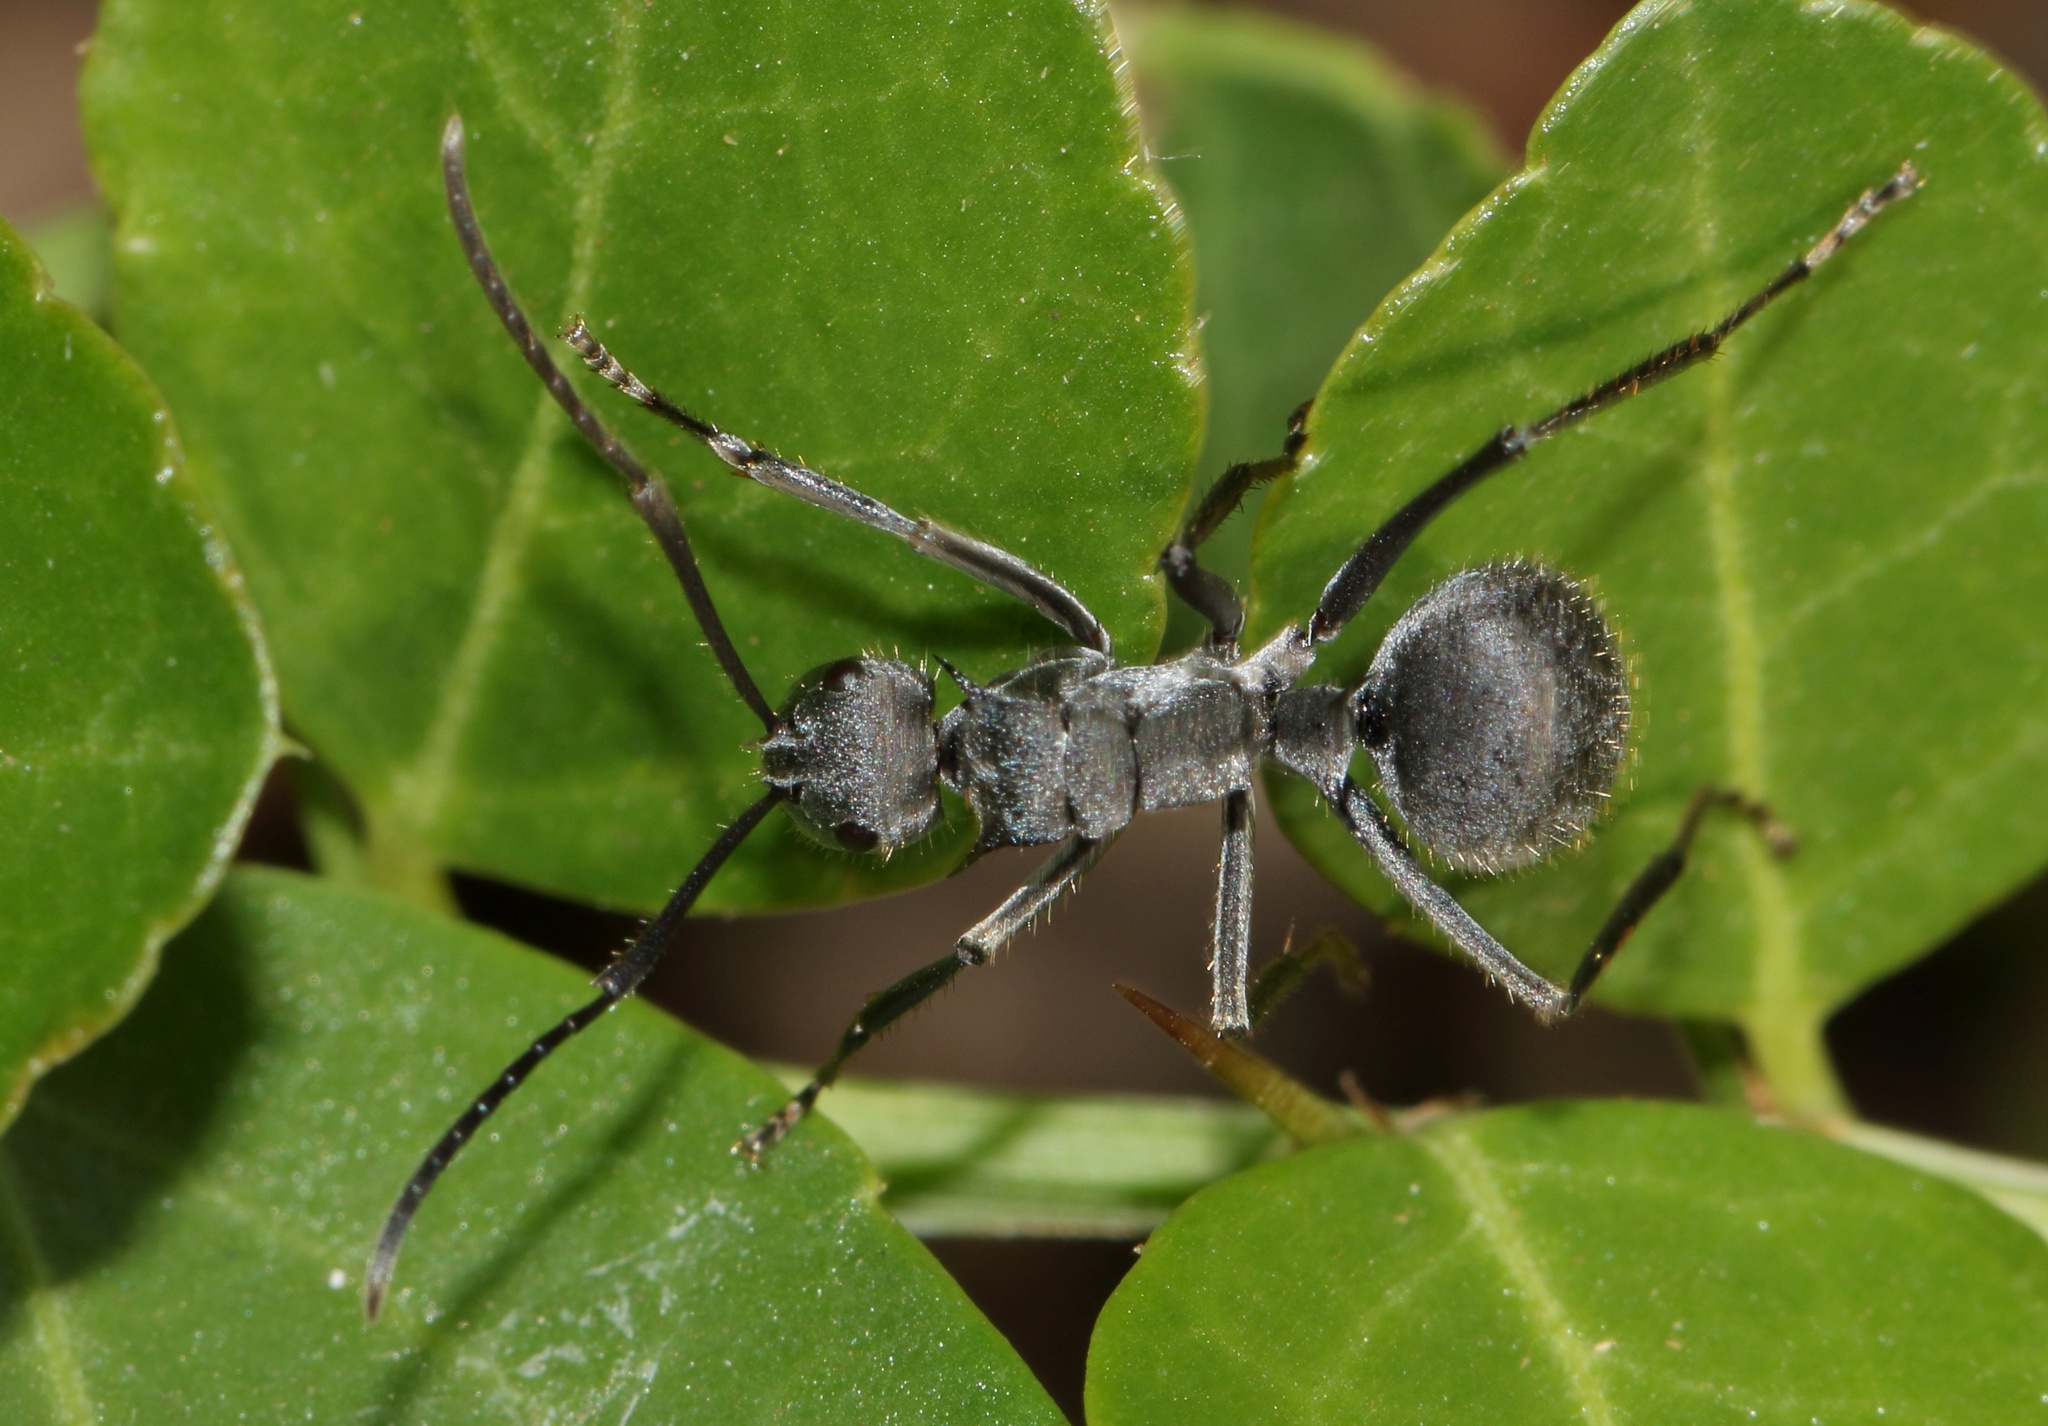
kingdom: Animalia
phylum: Arthropoda
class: Insecta
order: Hymenoptera
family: Formicidae
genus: Polyrhachis
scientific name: Polyrhachis schistacea
